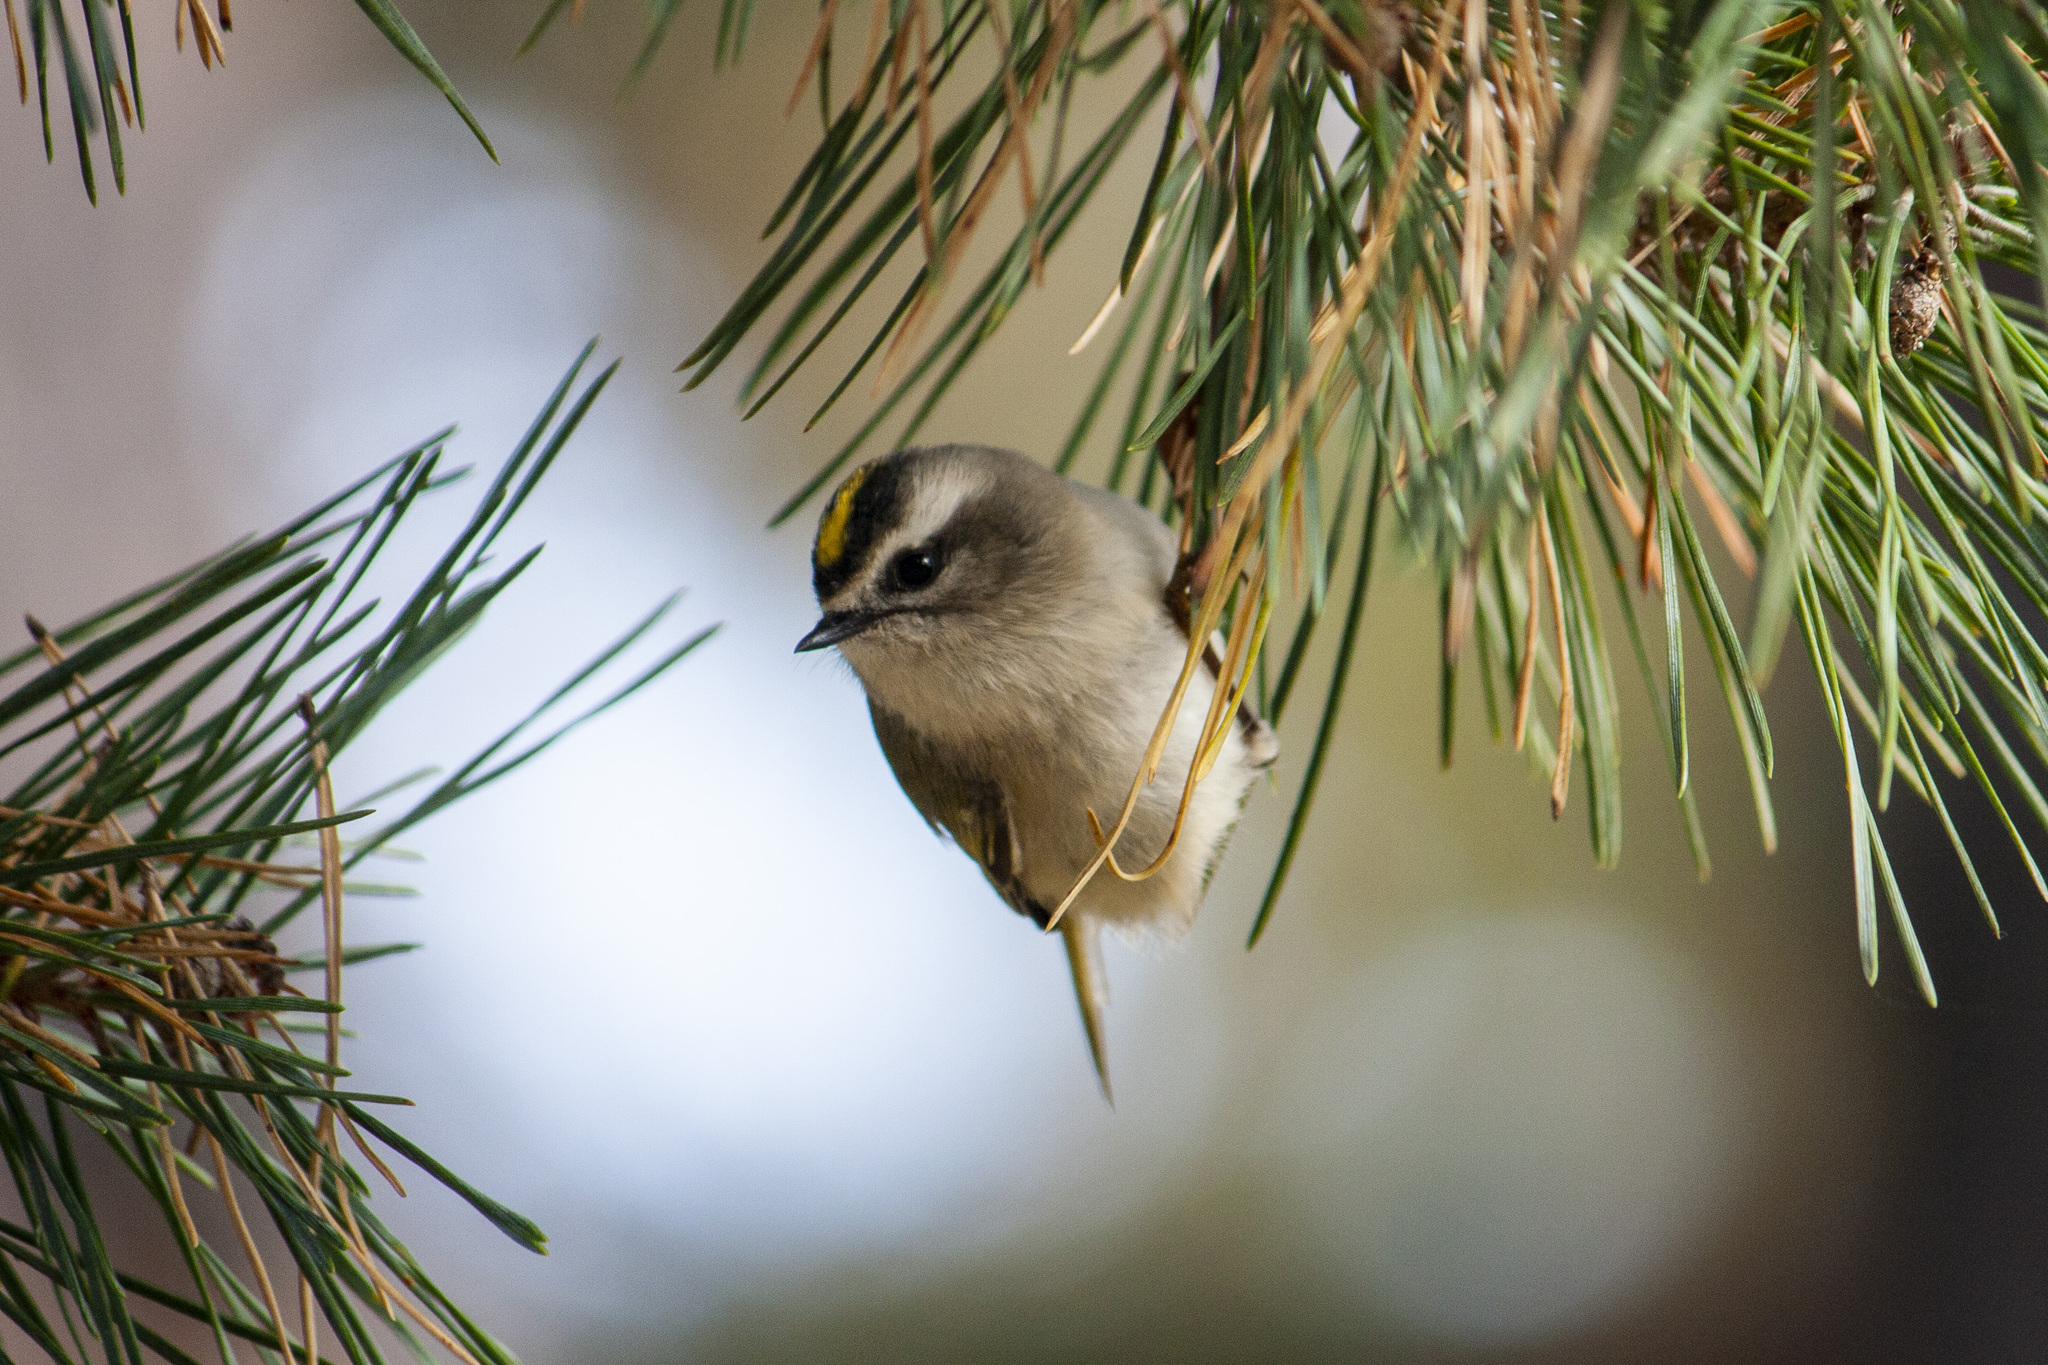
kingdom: Animalia
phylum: Chordata
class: Aves
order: Passeriformes
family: Regulidae
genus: Regulus
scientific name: Regulus satrapa
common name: Golden-crowned kinglet
